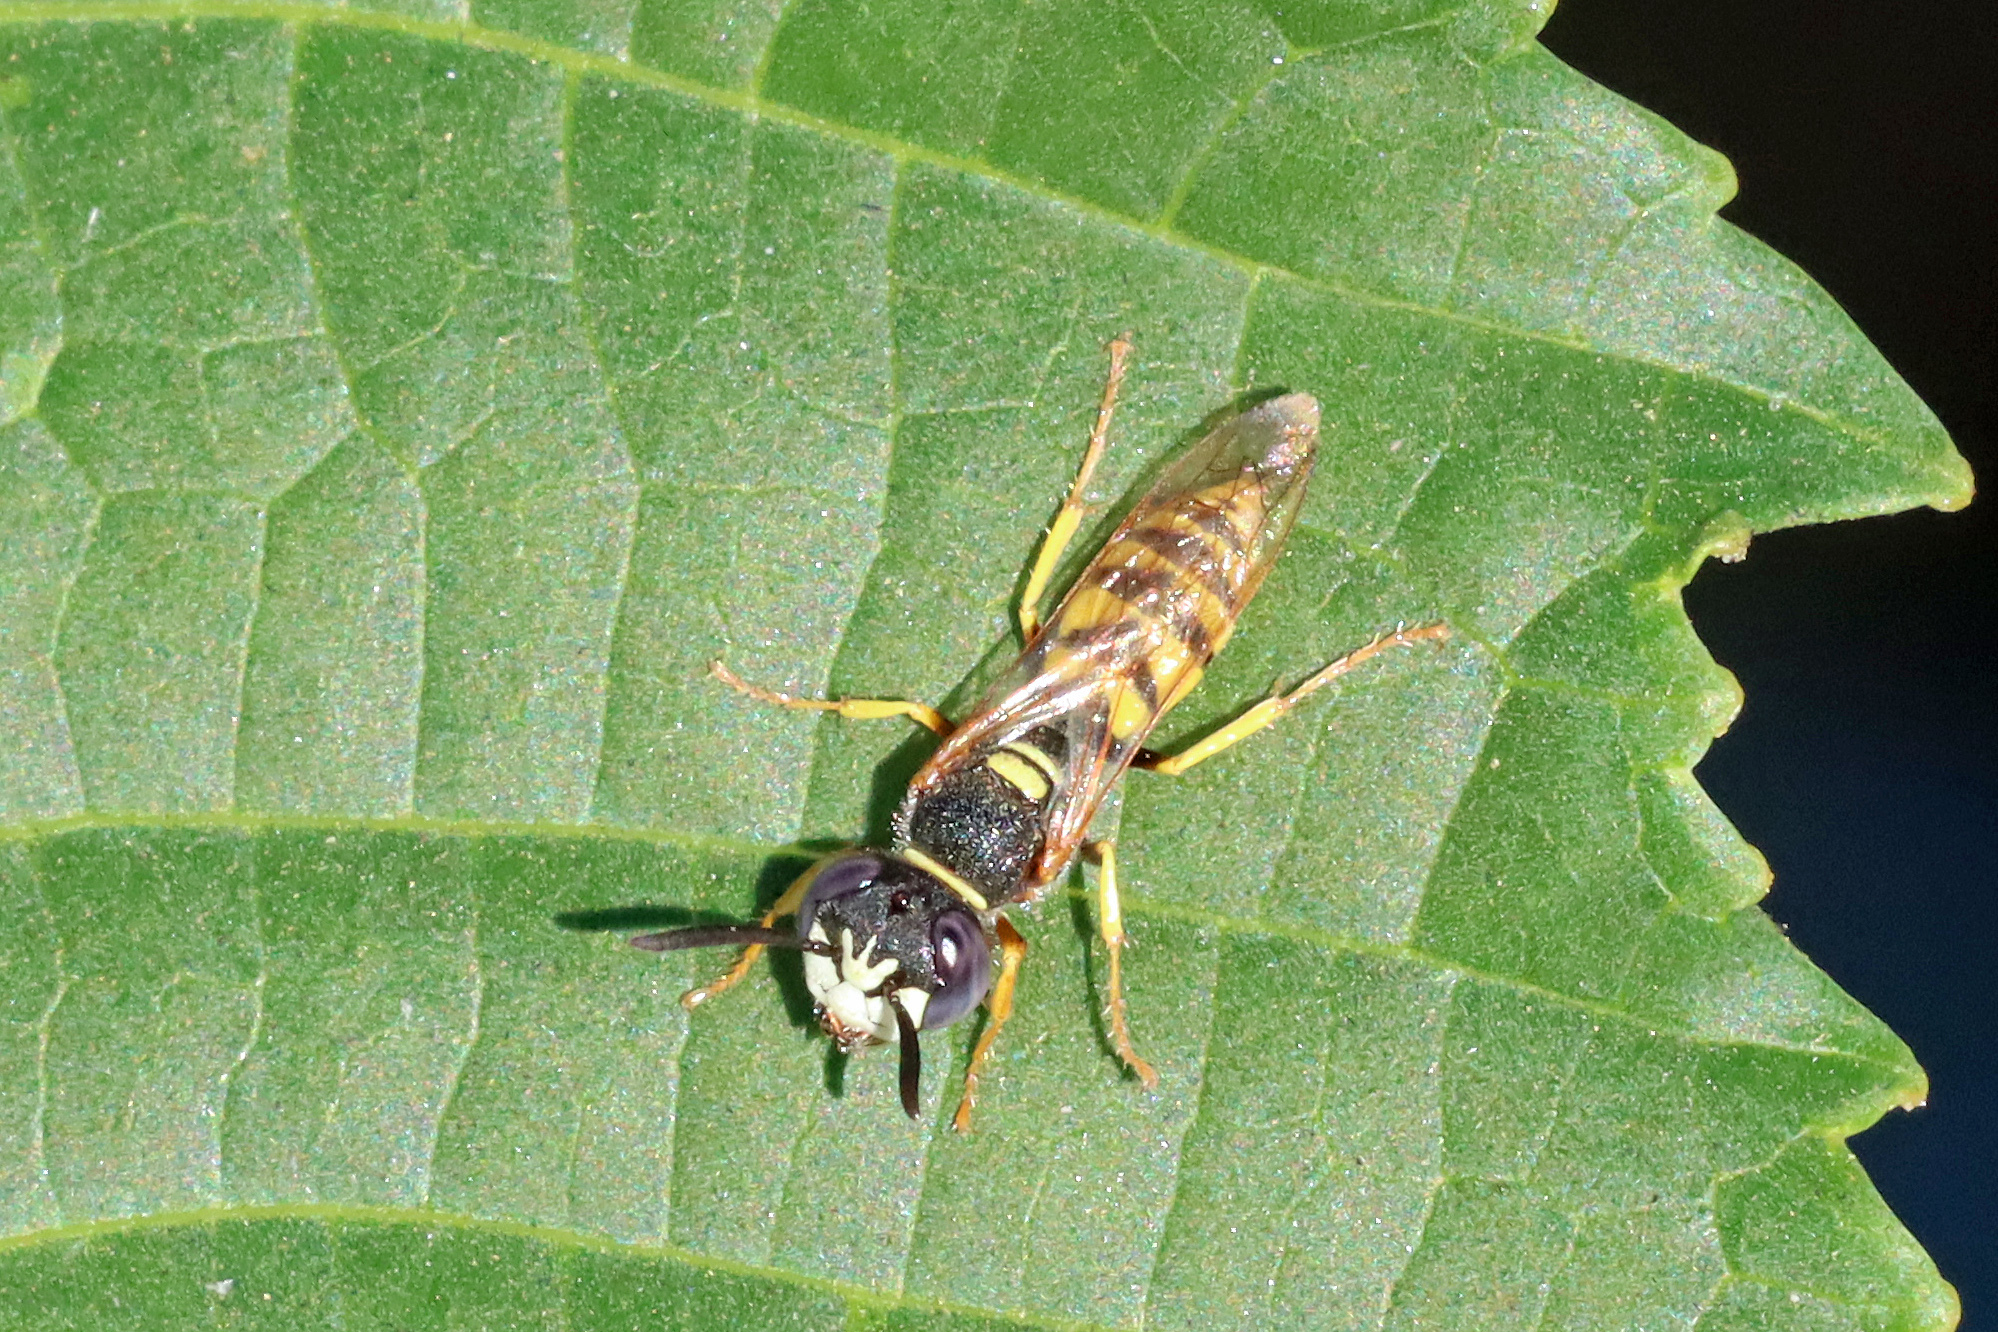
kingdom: Animalia
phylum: Arthropoda
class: Insecta
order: Hymenoptera
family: Crabronidae
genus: Philanthus
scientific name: Philanthus triangulum
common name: Bee wolf
